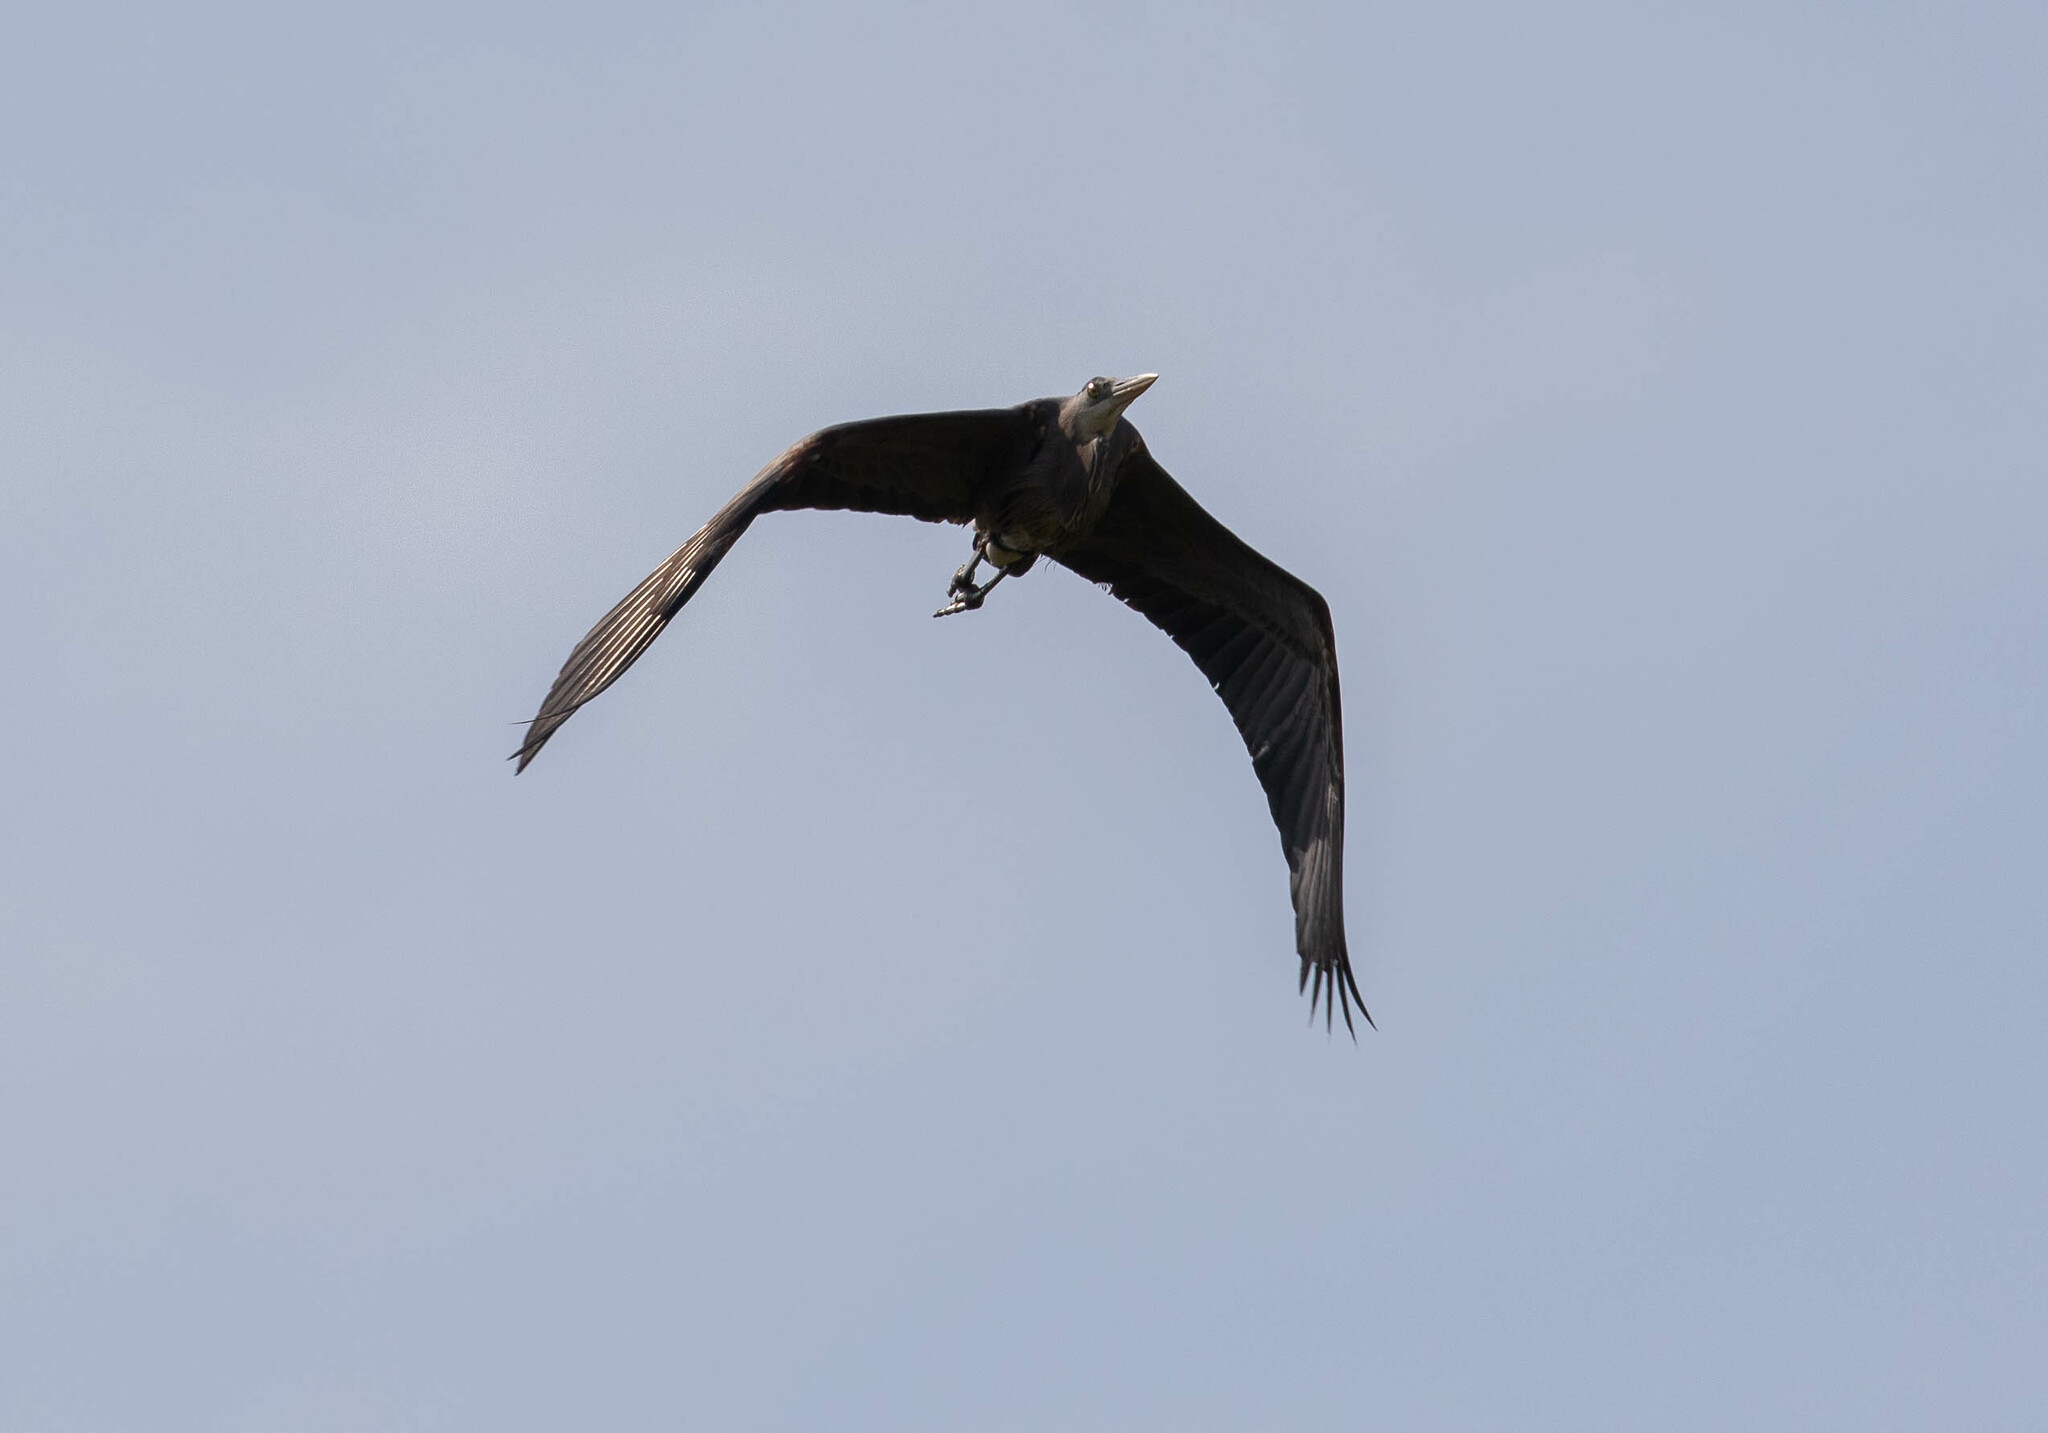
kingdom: Animalia
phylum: Chordata
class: Aves
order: Pelecaniformes
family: Ardeidae
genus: Ardea
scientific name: Ardea herodias
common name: Great blue heron
